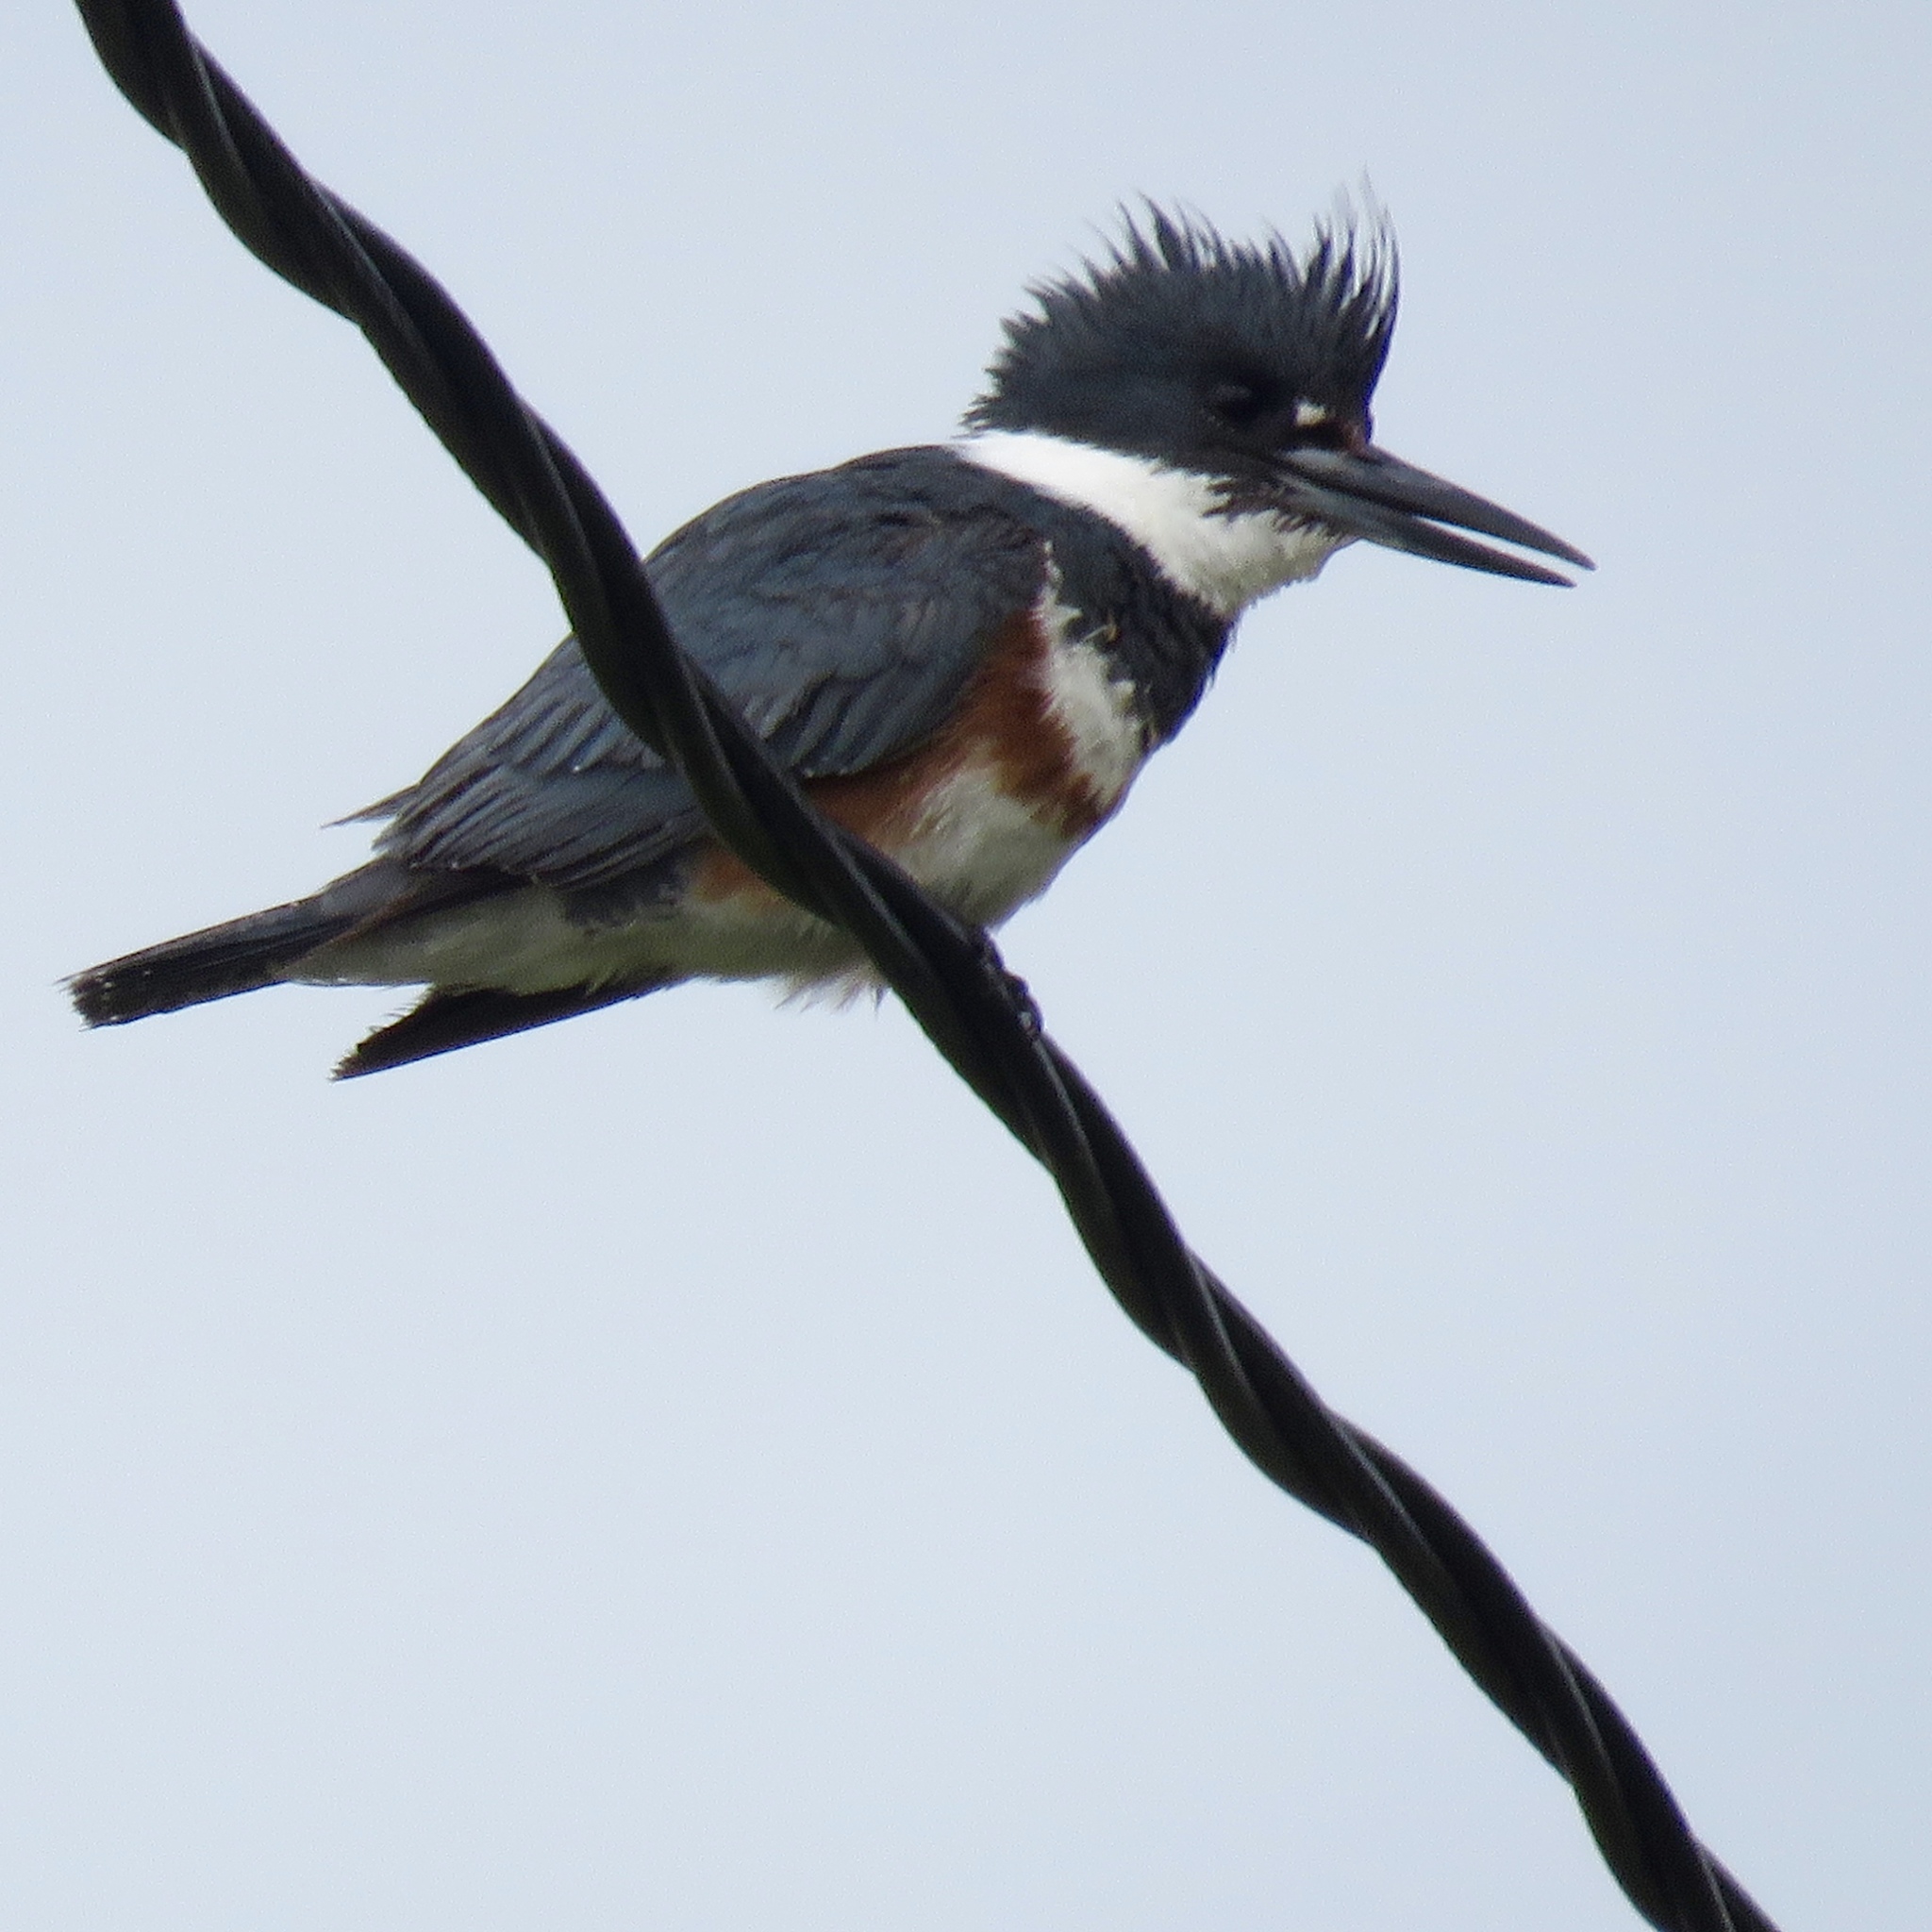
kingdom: Animalia
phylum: Chordata
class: Aves
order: Coraciiformes
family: Alcedinidae
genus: Megaceryle
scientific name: Megaceryle alcyon
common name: Belted kingfisher
